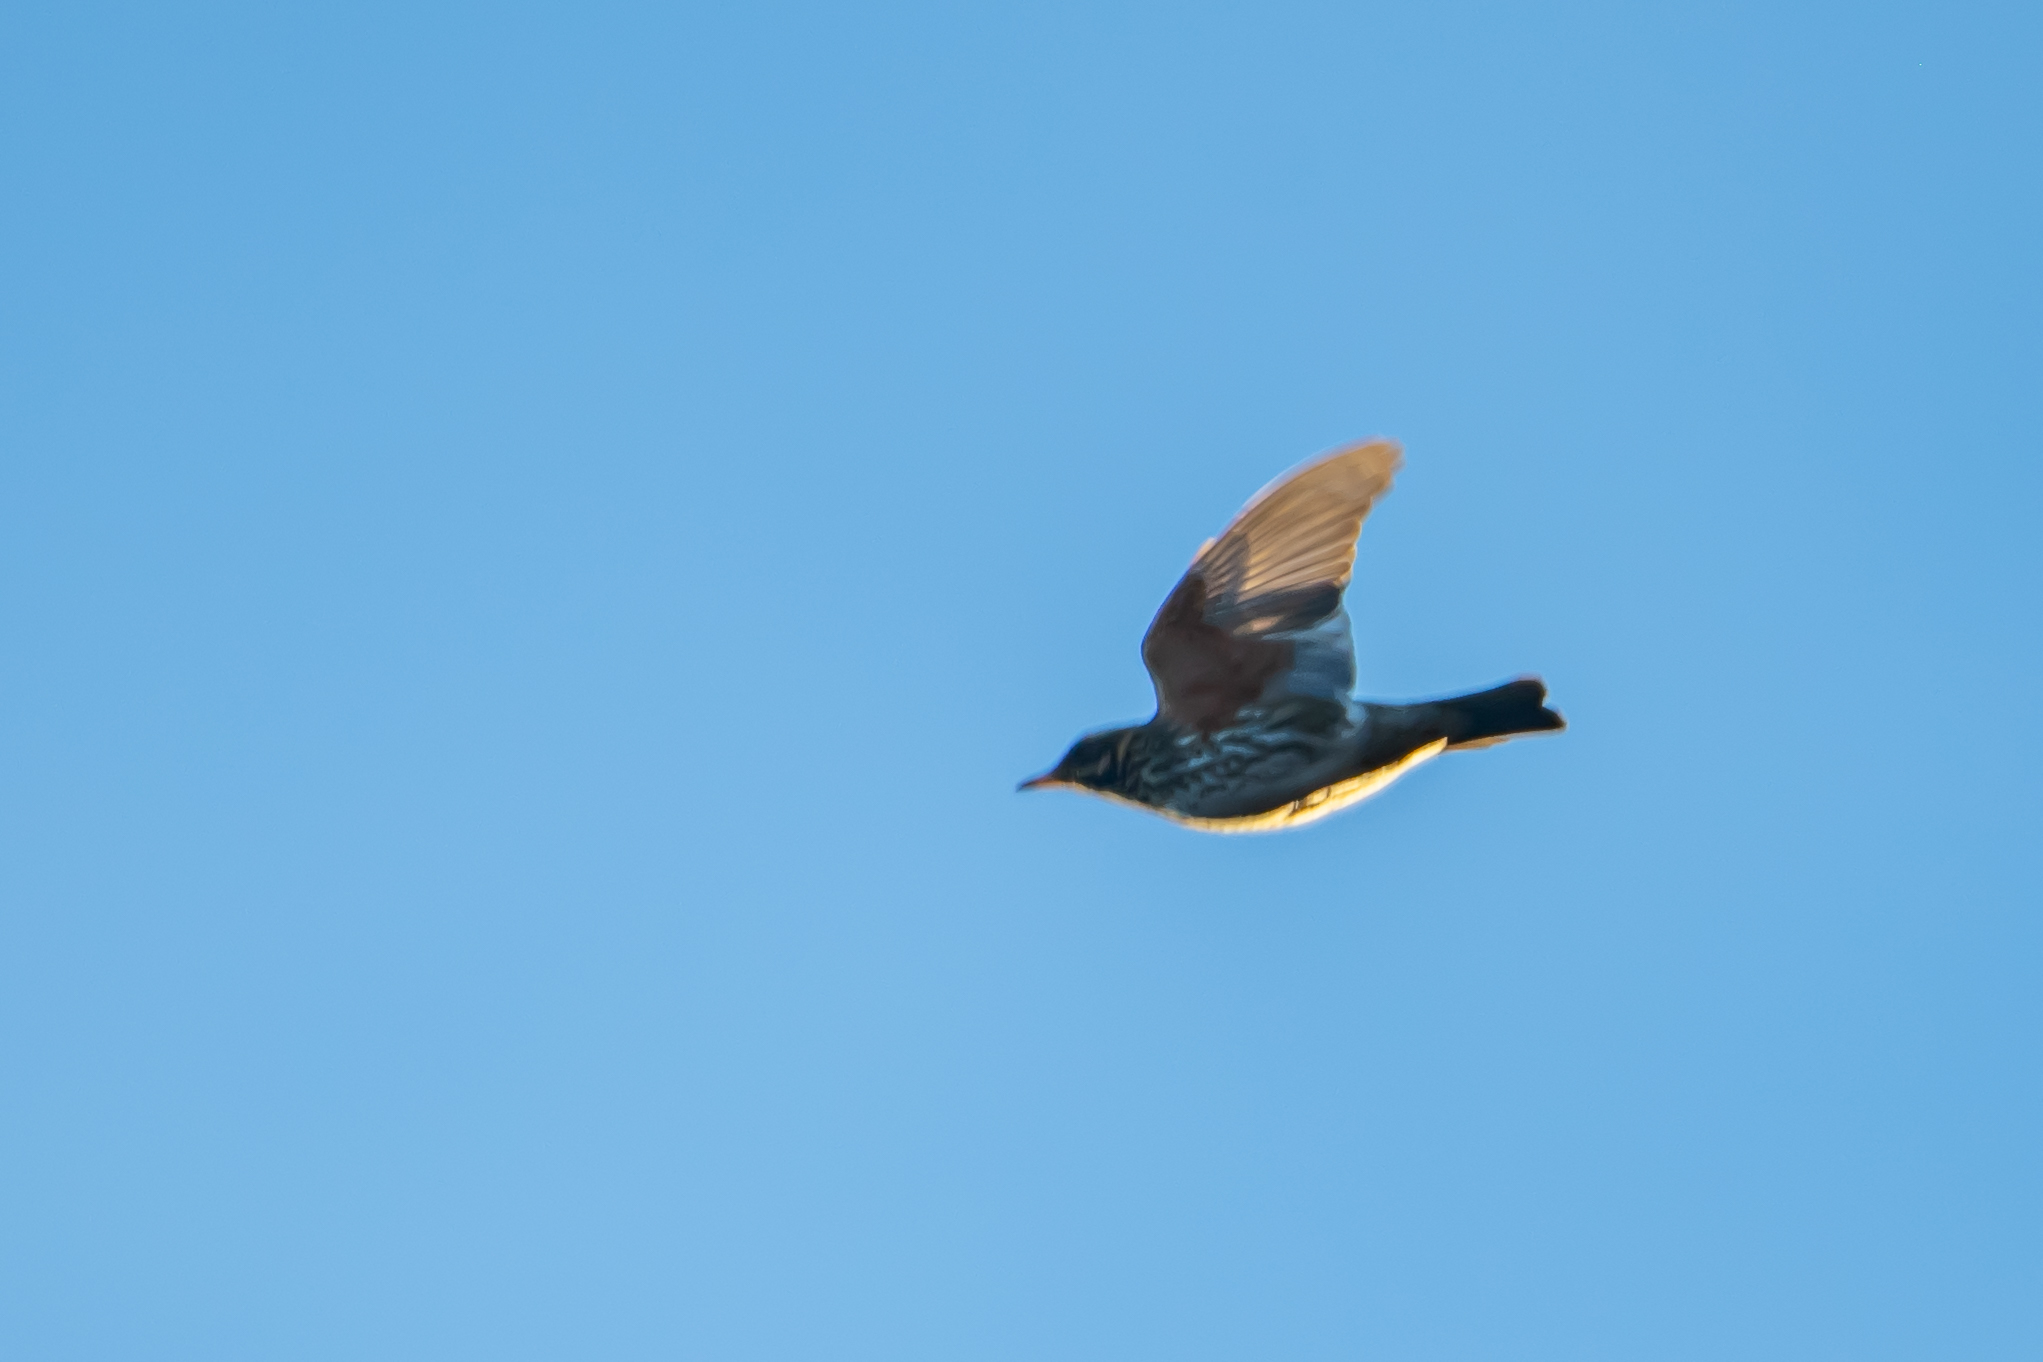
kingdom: Animalia
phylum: Chordata
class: Aves
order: Passeriformes
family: Turdidae
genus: Turdus
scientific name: Turdus iliacus
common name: Redwing
